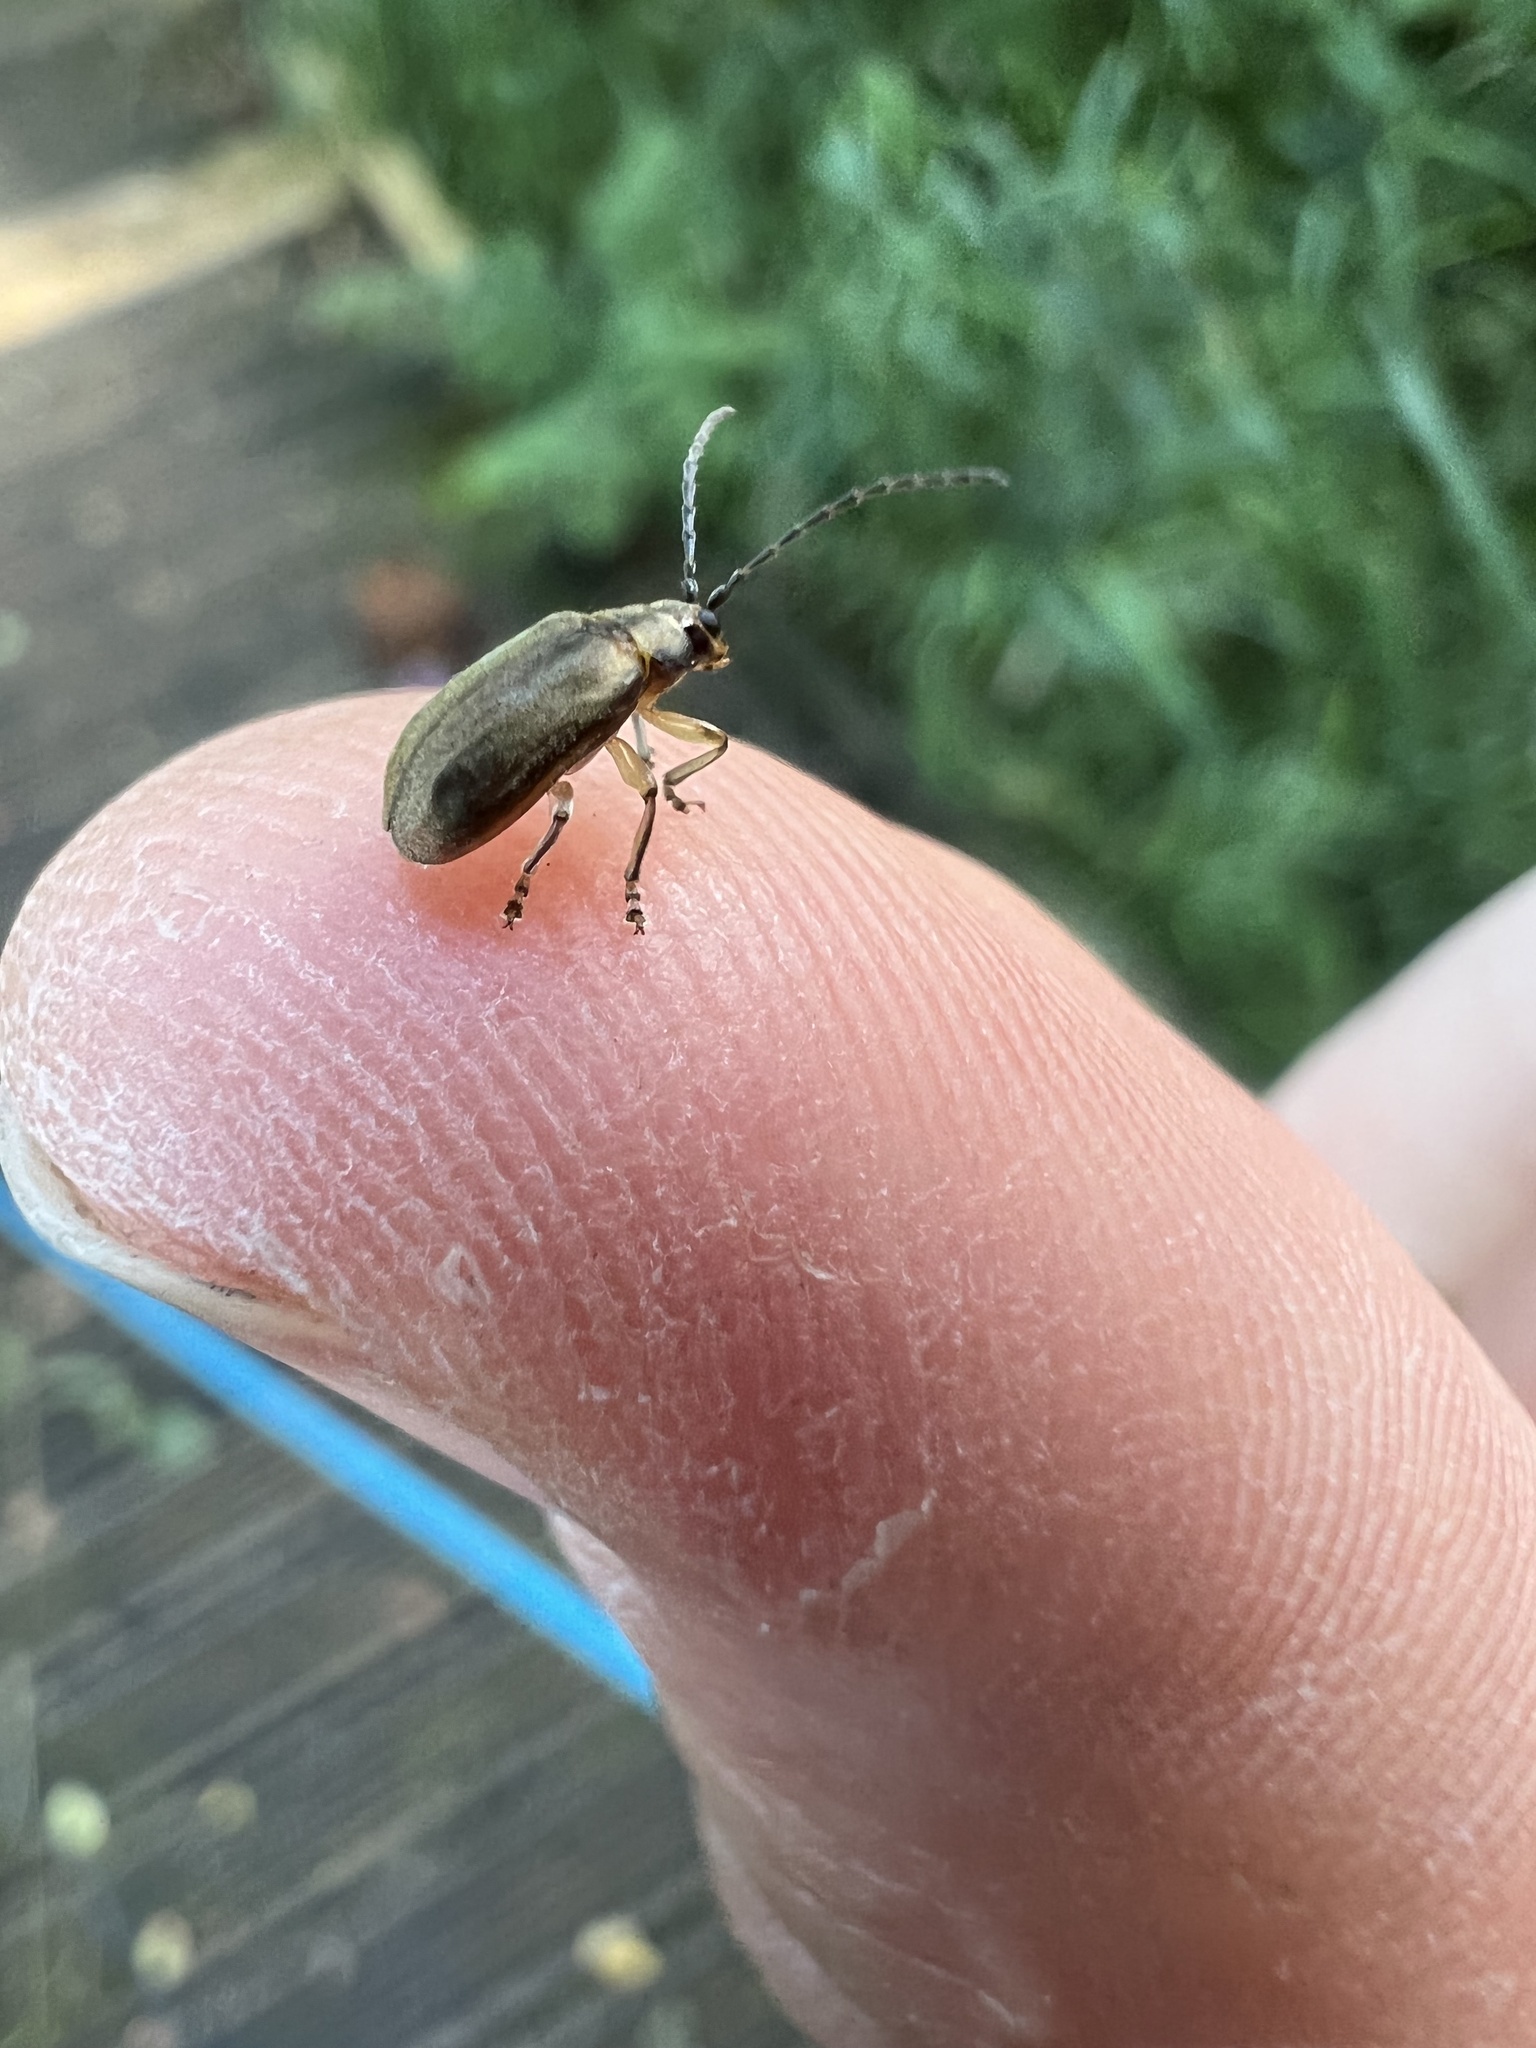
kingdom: Animalia
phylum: Arthropoda
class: Insecta
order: Coleoptera
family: Chrysomelidae
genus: Pyrrhalta
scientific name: Pyrrhalta viburni
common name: Guelder-rose leaf beetle
